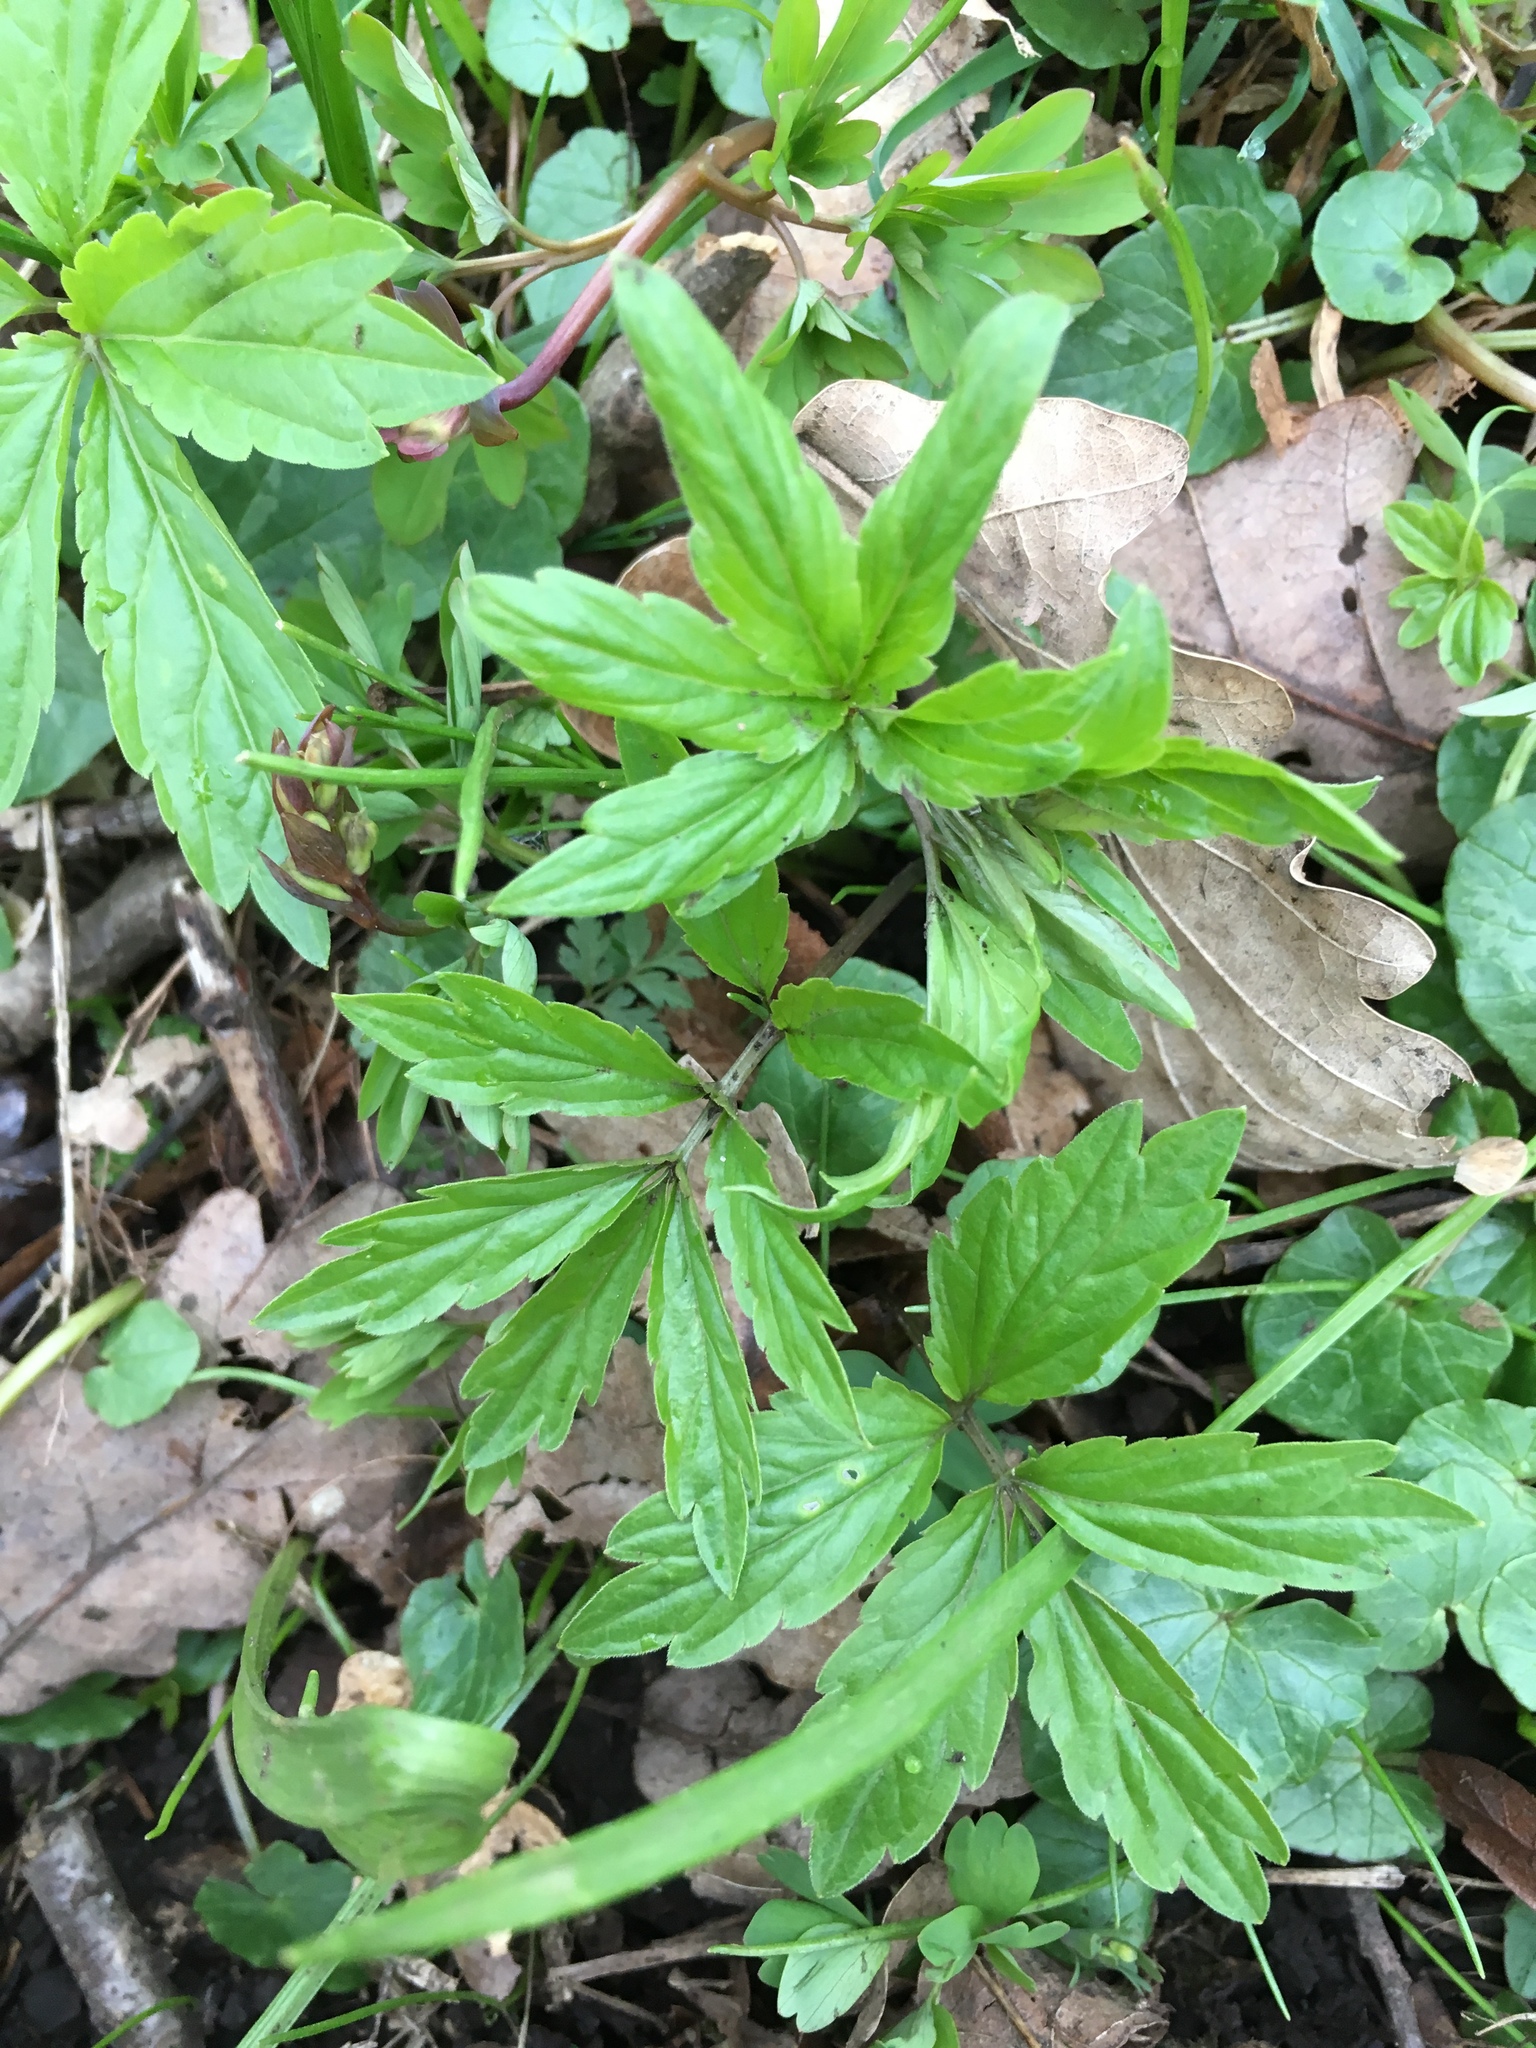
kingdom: Plantae
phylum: Tracheophyta
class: Magnoliopsida
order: Brassicales
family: Brassicaceae
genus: Cardamine
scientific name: Cardamine bulbifera
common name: Coralroot bittercress
